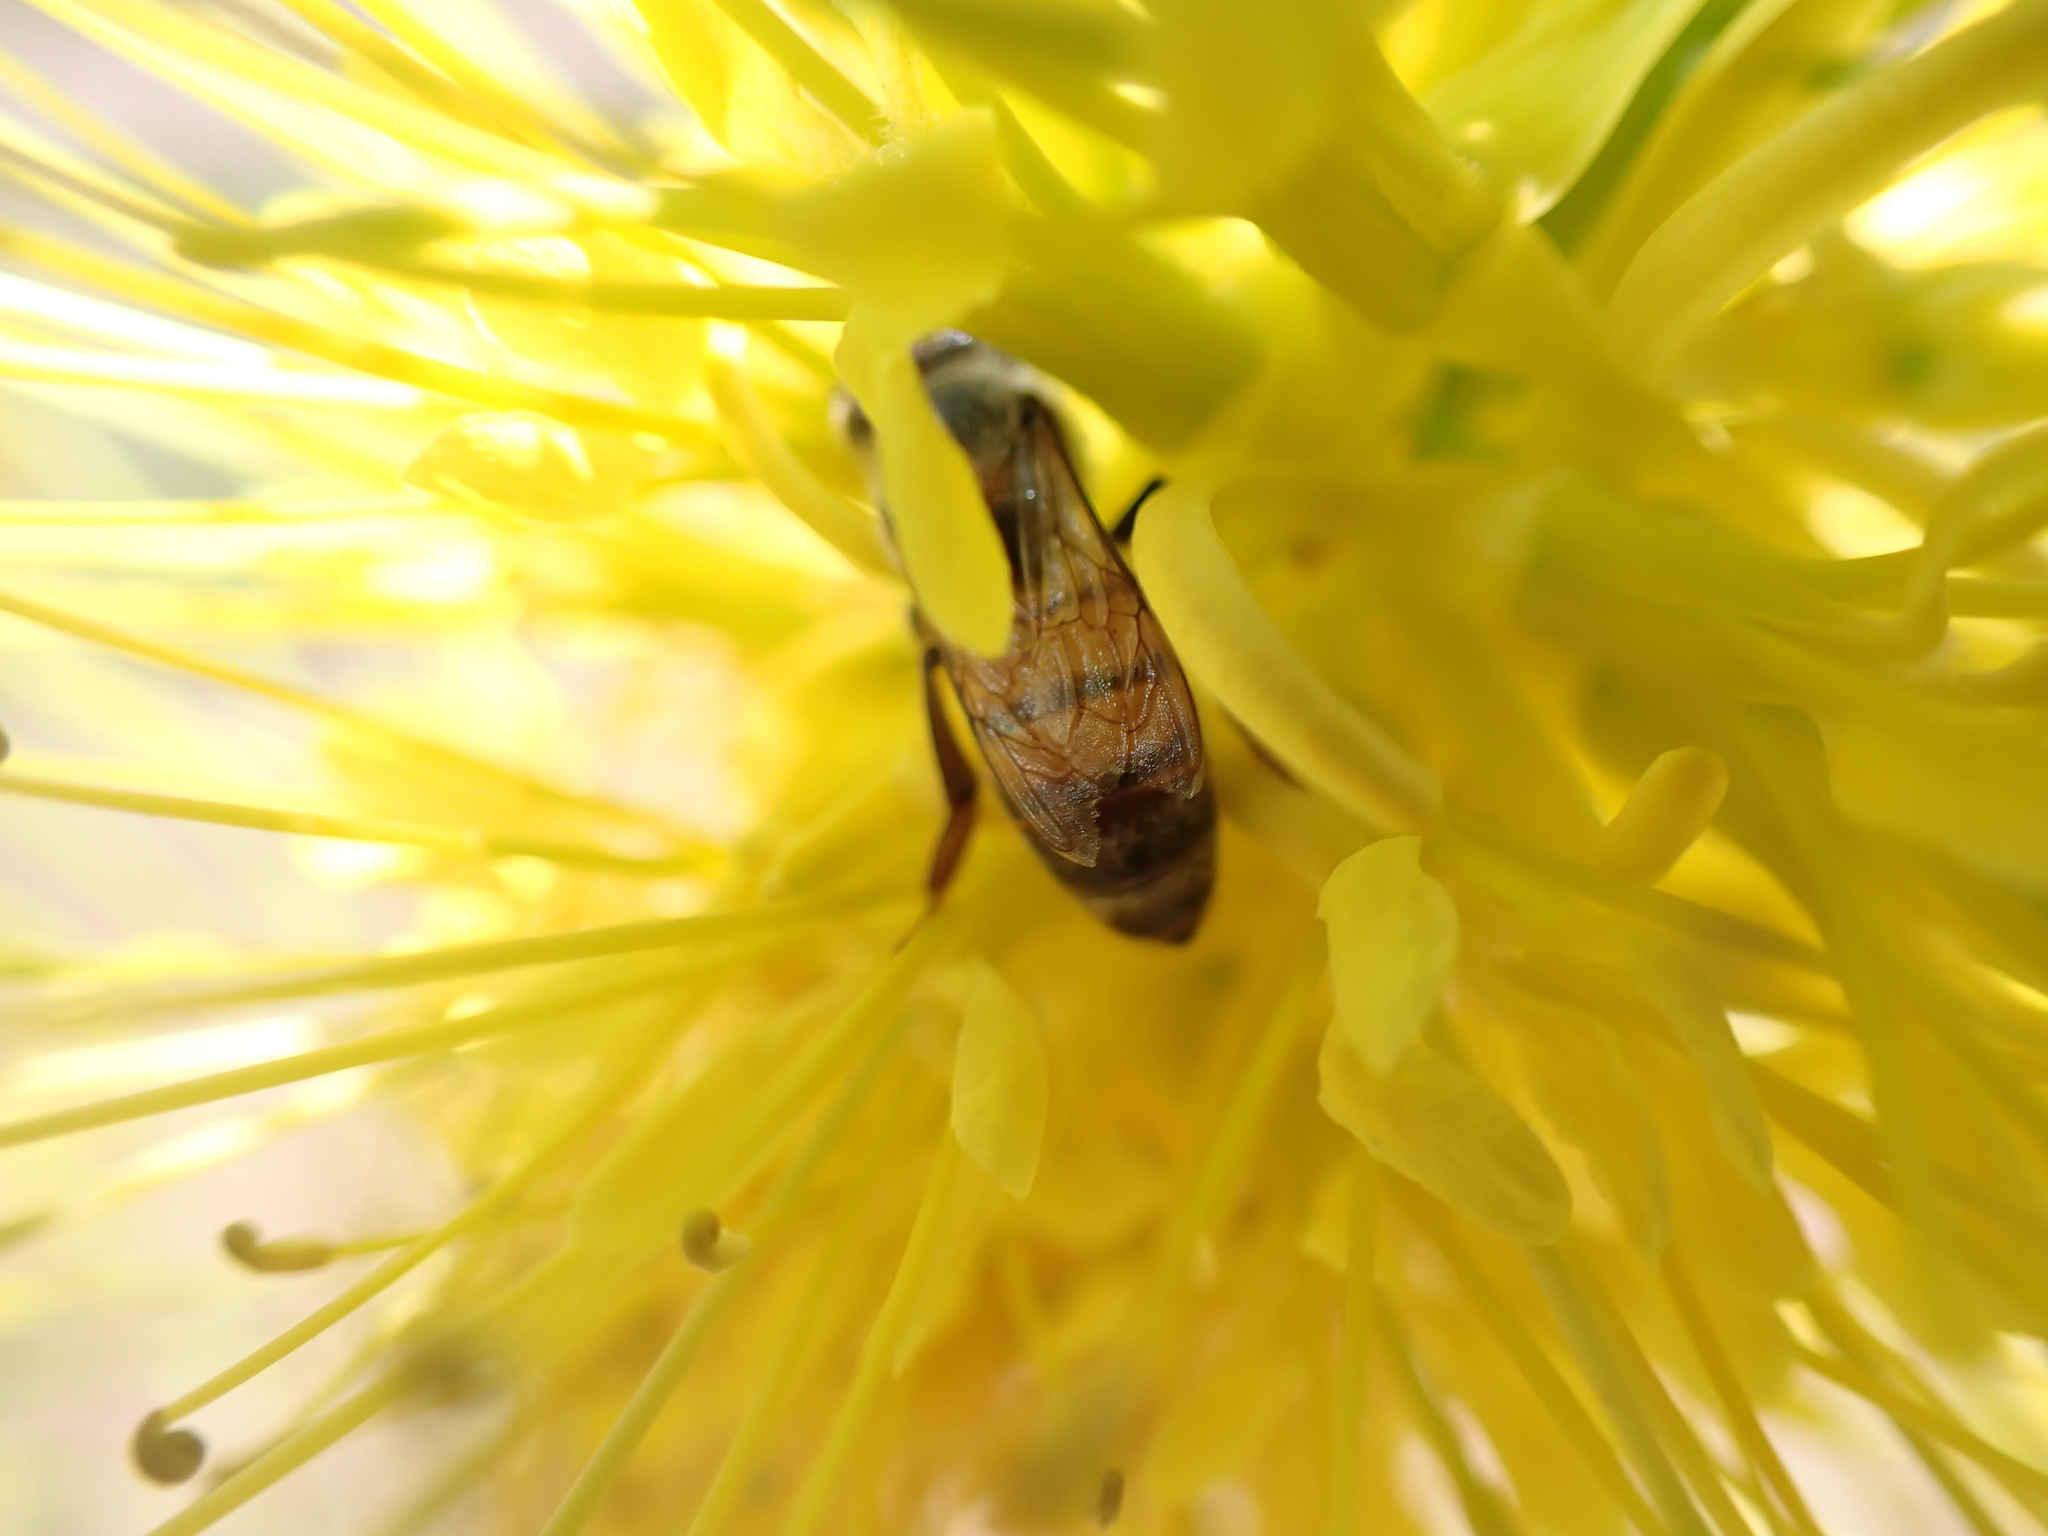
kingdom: Animalia
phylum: Arthropoda
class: Insecta
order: Hymenoptera
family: Apidae
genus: Apis
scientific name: Apis mellifera
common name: Honey bee
